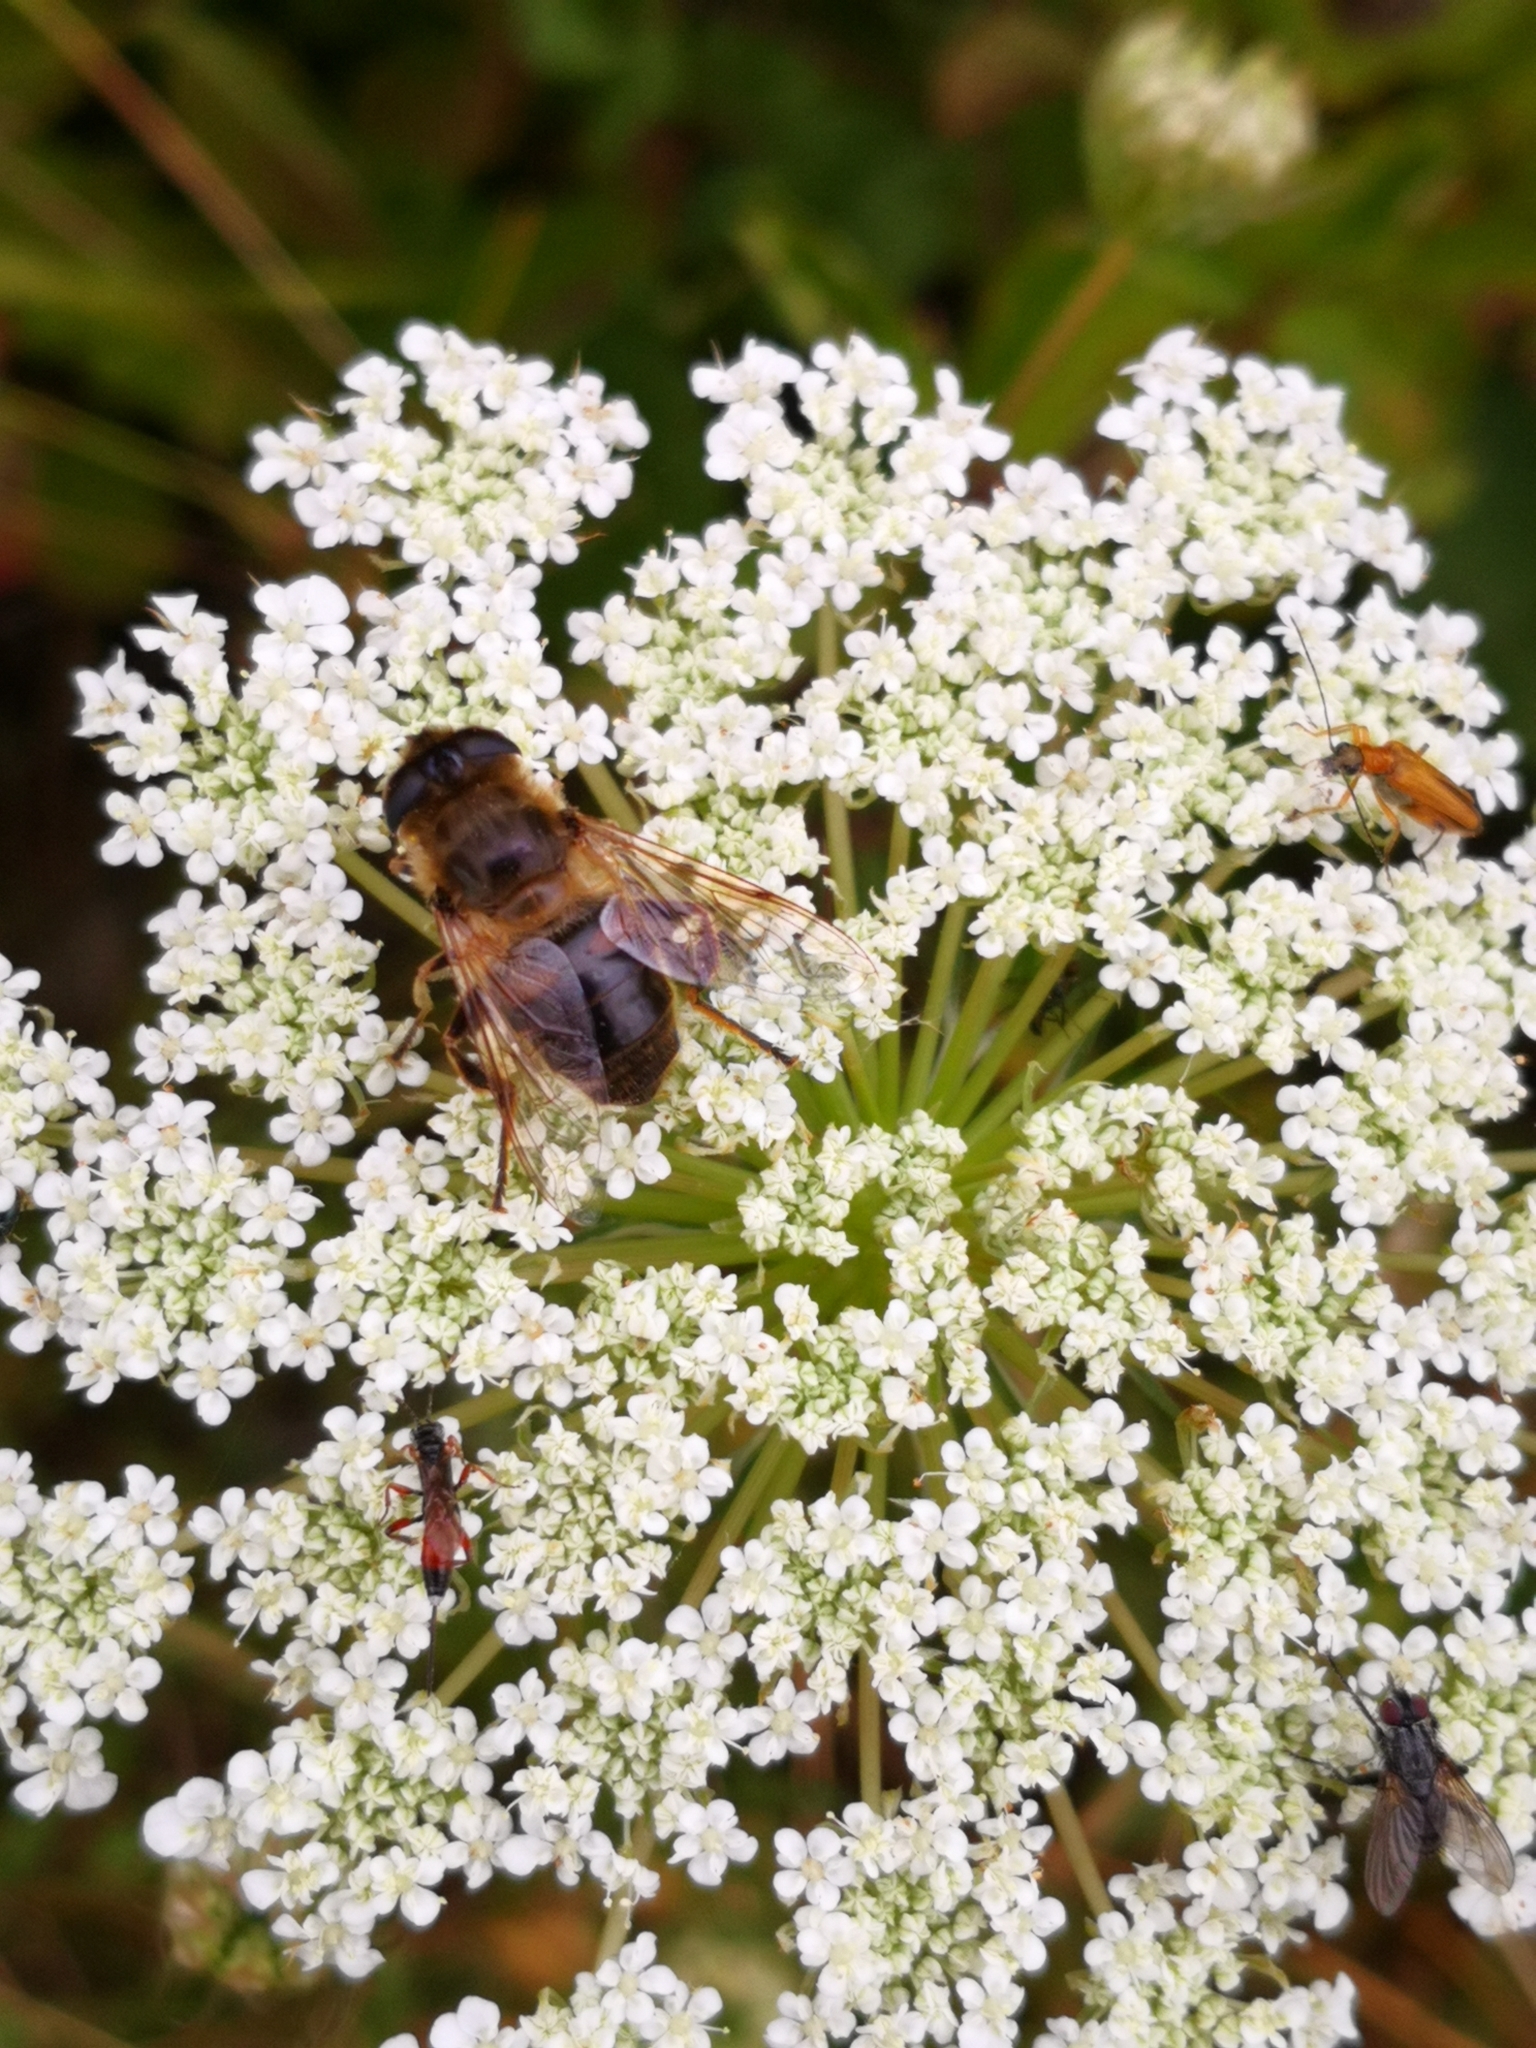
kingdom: Animalia
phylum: Arthropoda
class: Insecta
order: Diptera
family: Syrphidae
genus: Eristalis
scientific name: Eristalis tenax
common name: Drone fly
